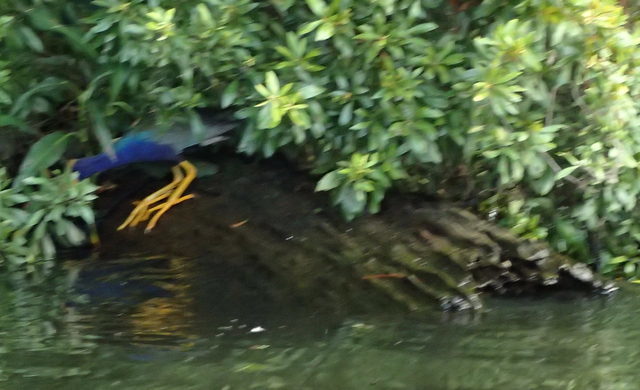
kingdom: Animalia
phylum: Chordata
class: Aves
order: Pelecaniformes
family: Ardeidae
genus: Butorides
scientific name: Butorides virescens
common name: Green heron
